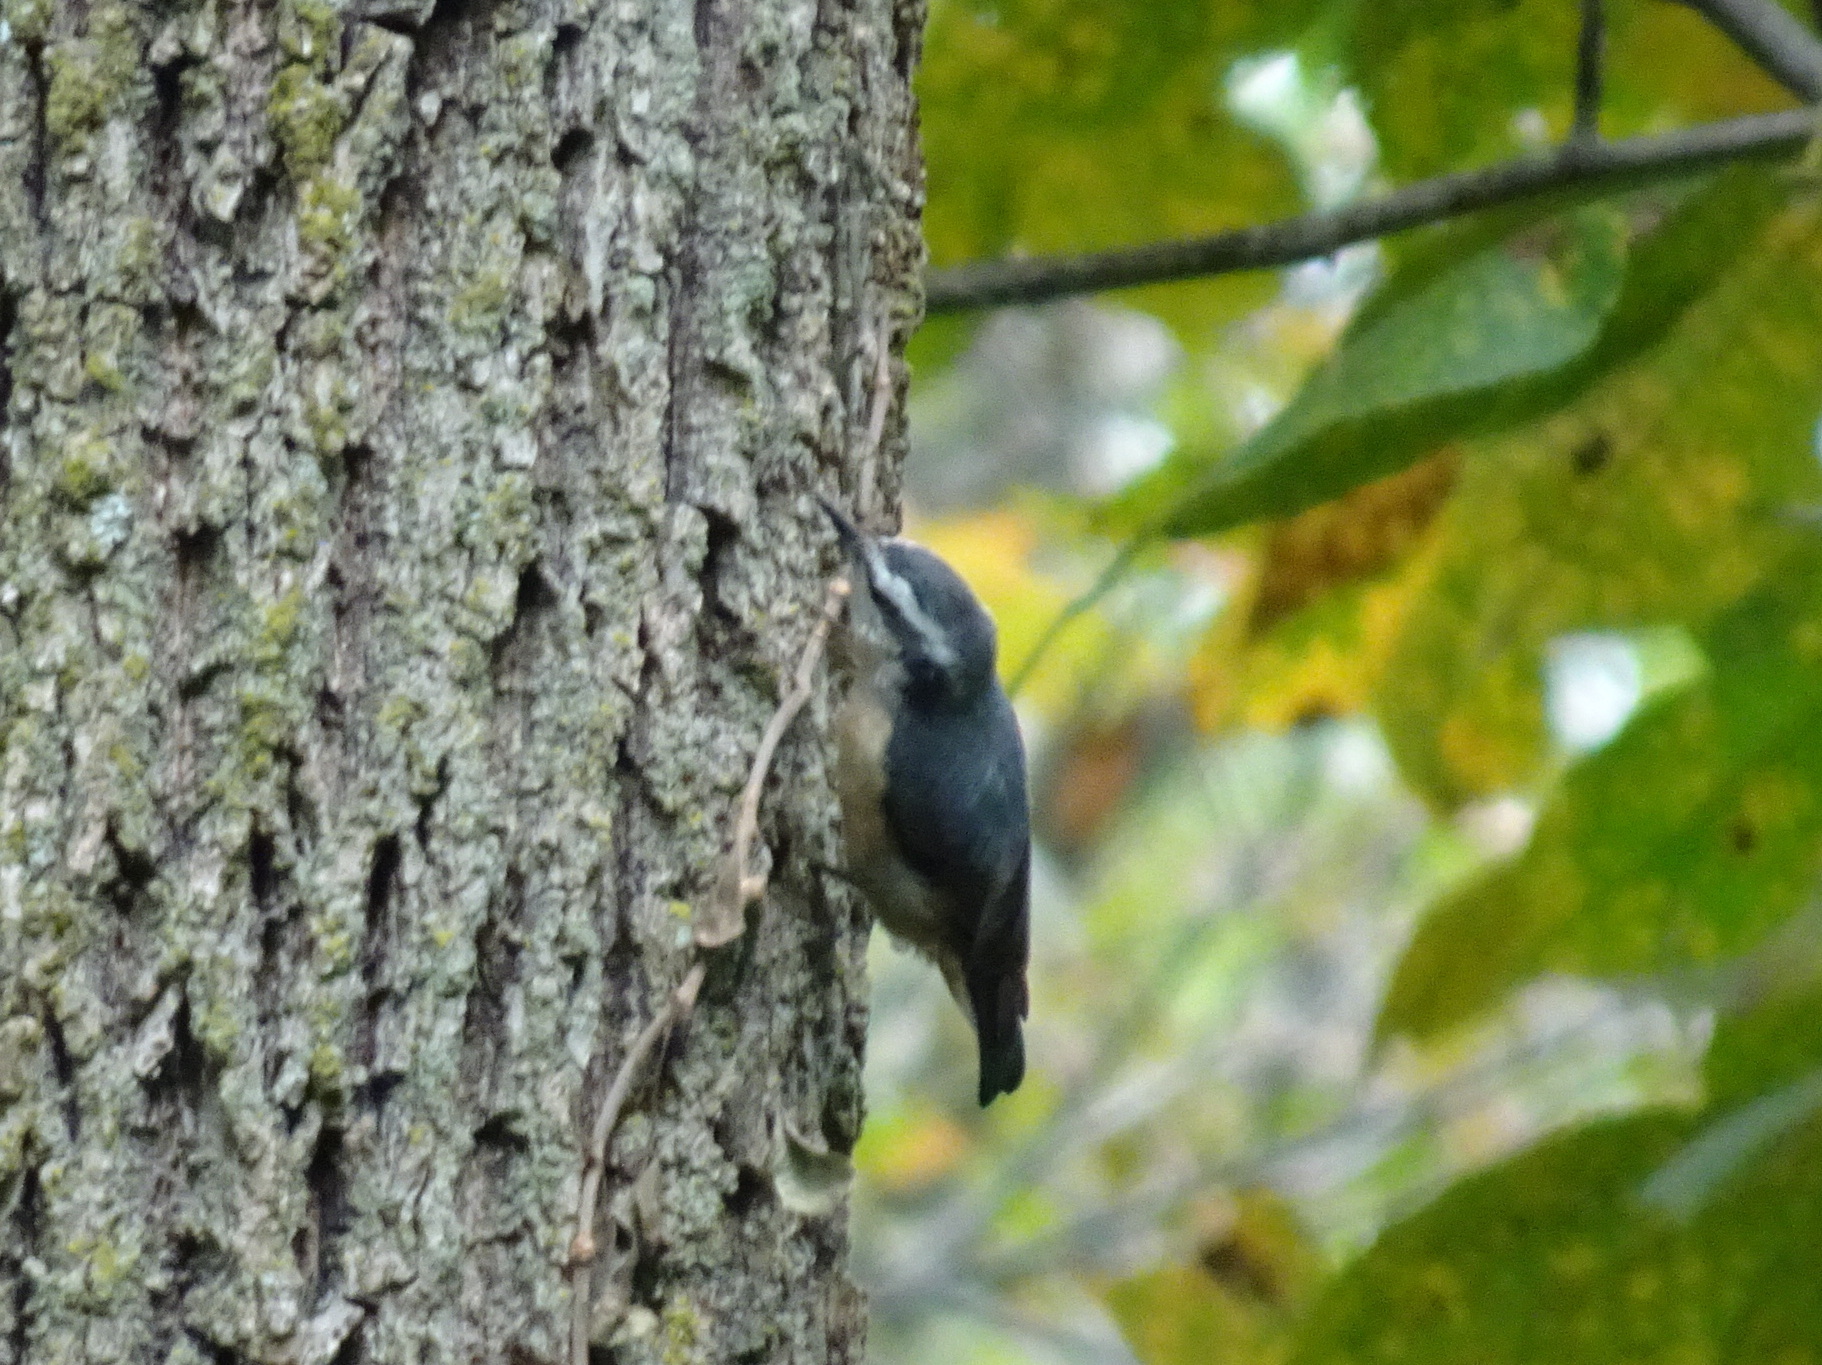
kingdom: Animalia
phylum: Chordata
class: Aves
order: Passeriformes
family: Sittidae
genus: Sitta
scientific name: Sitta canadensis
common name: Red-breasted nuthatch
